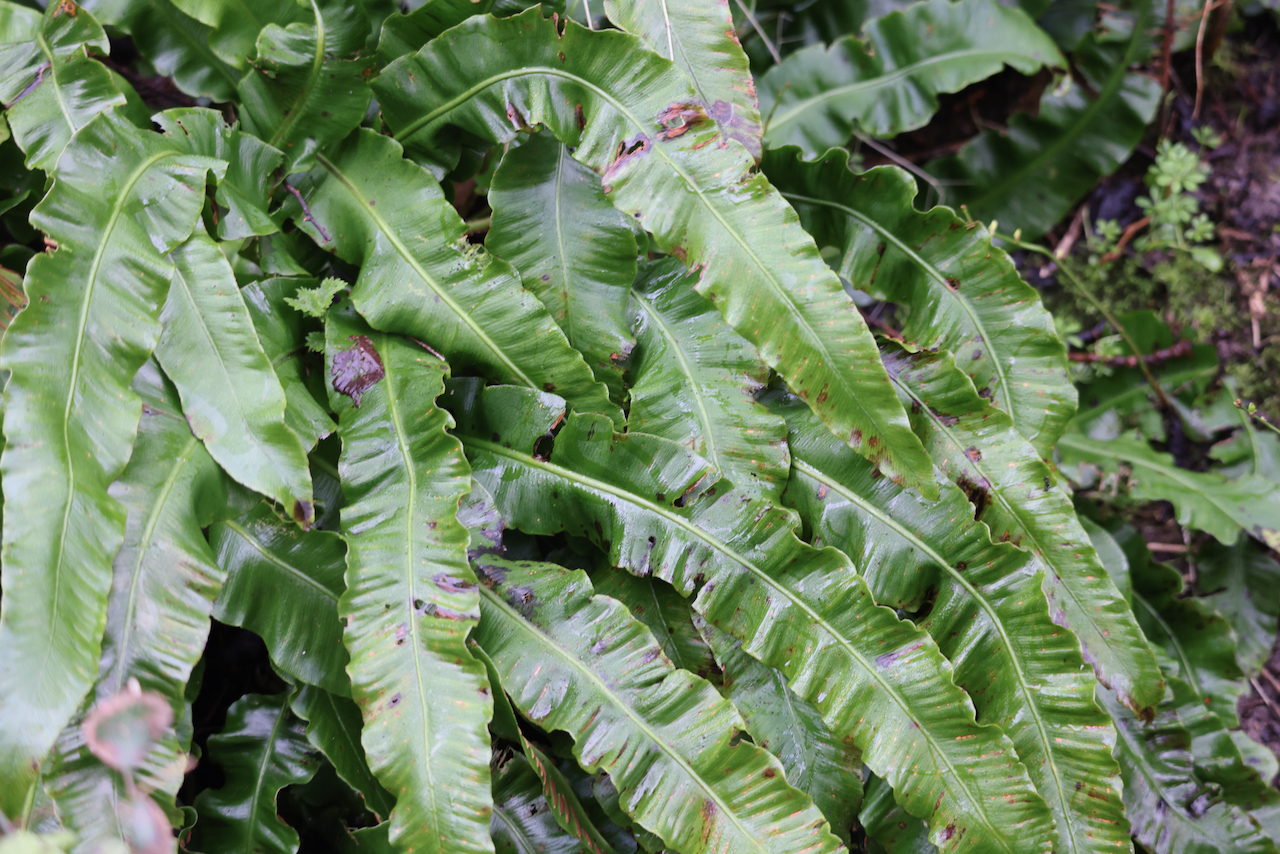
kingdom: Plantae
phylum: Tracheophyta
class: Polypodiopsida
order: Polypodiales
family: Aspleniaceae
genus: Asplenium
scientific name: Asplenium scolopendrium
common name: Hart's-tongue fern
